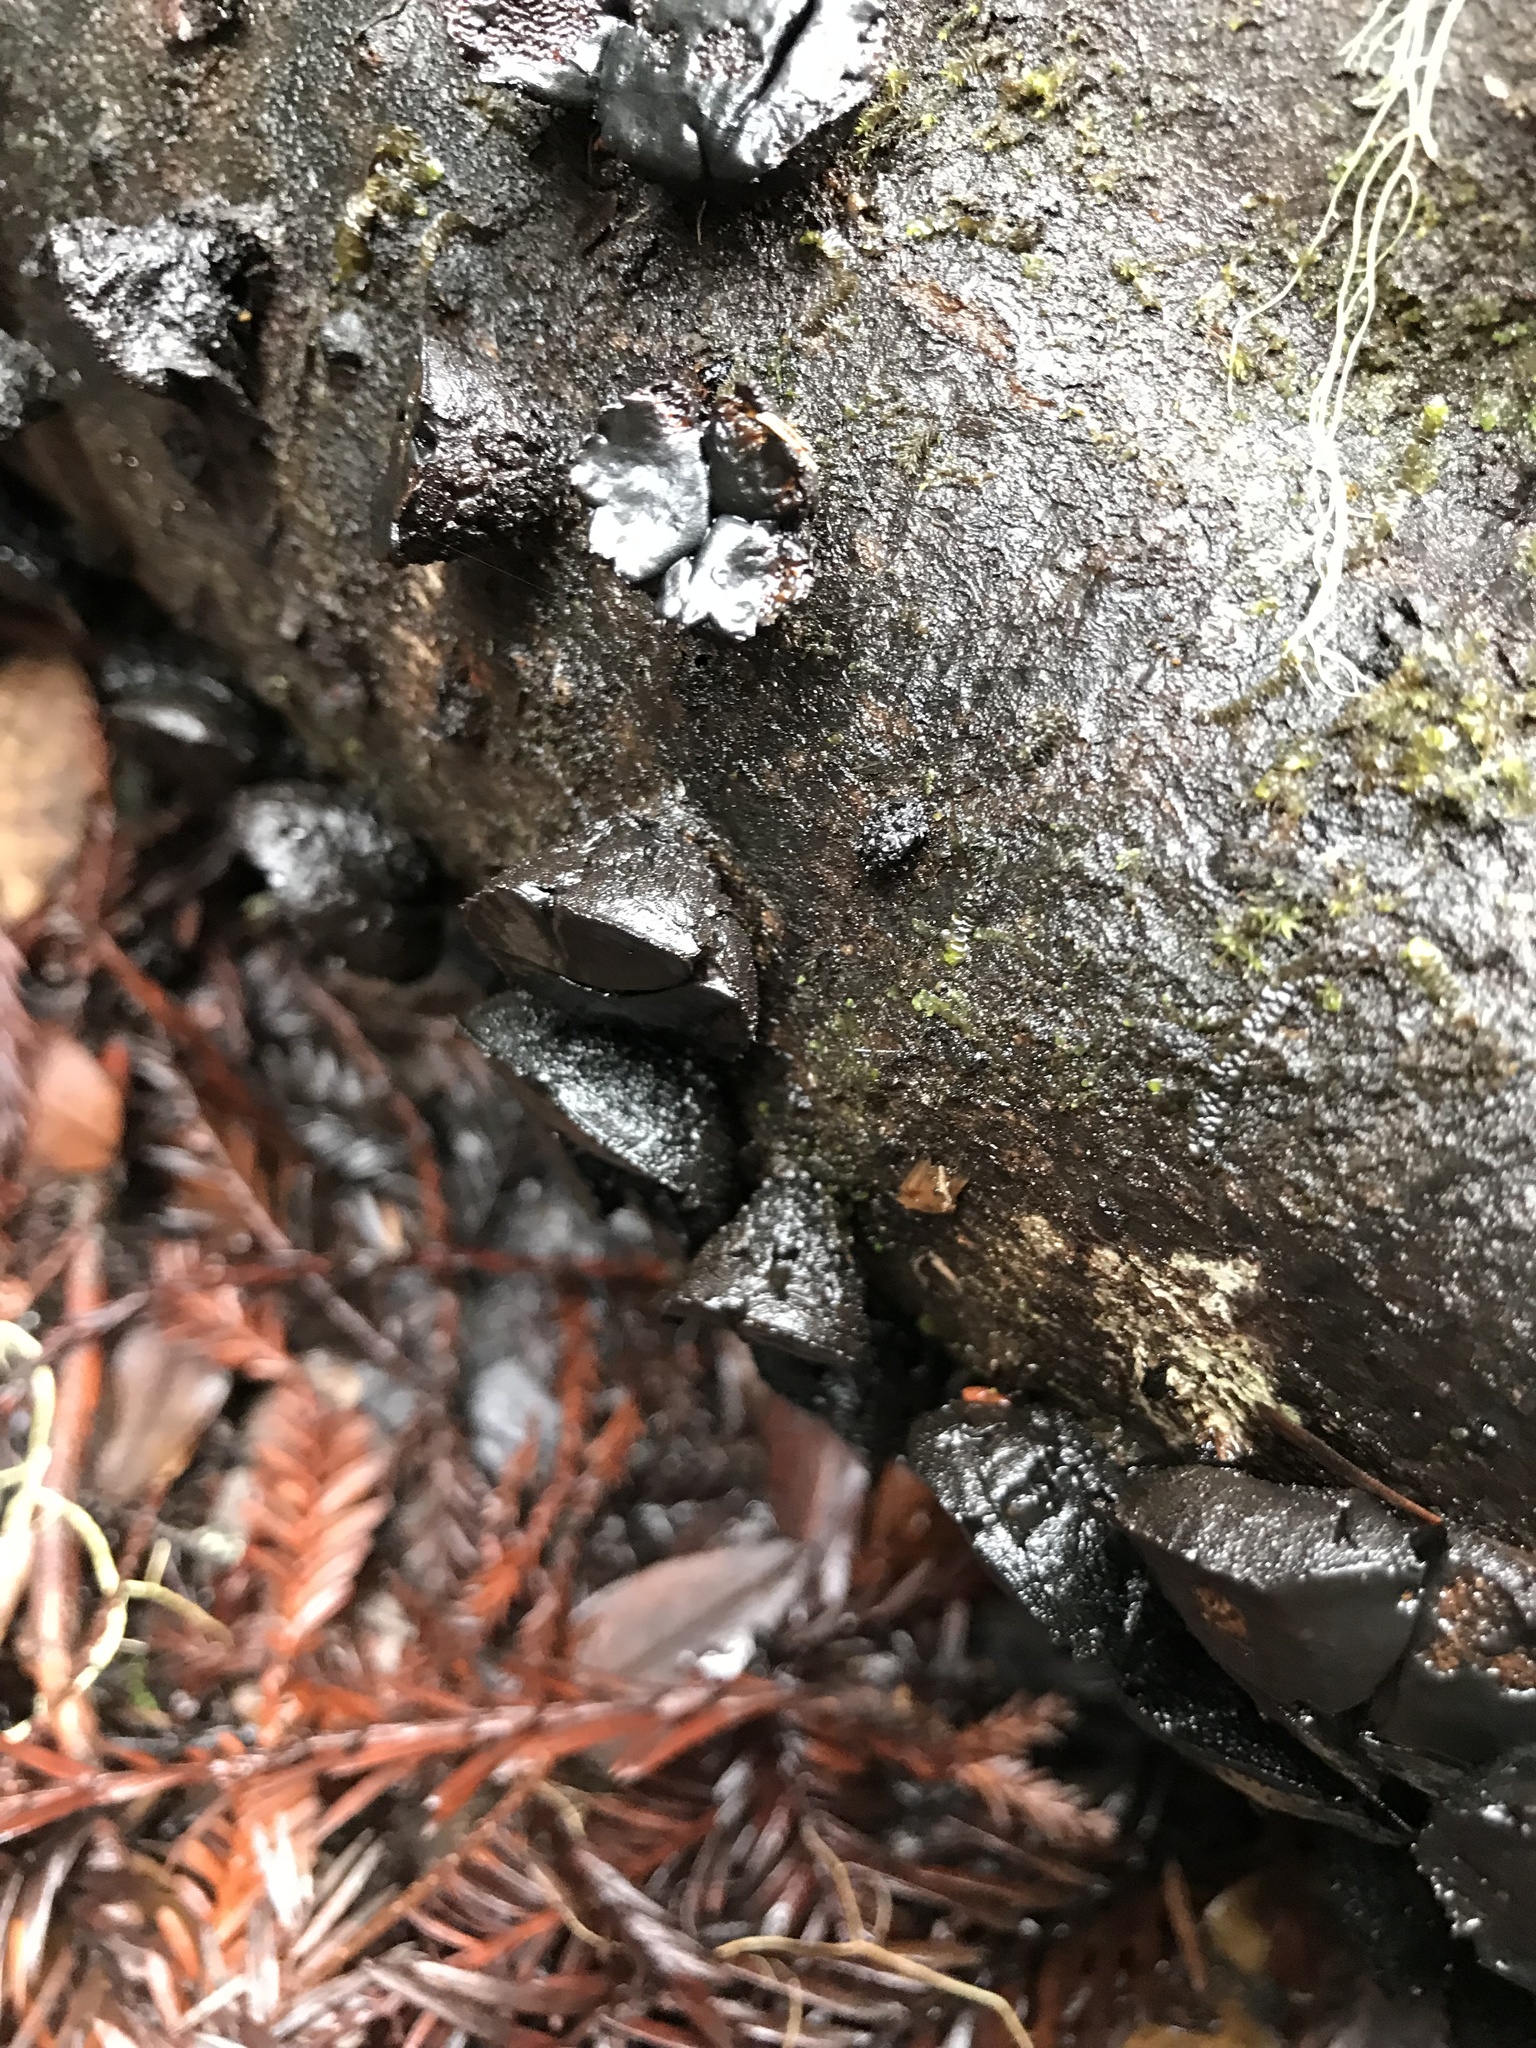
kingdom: Fungi
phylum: Ascomycota
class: Leotiomycetes
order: Phacidiales
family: Phacidiaceae
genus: Bulgaria
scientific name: Bulgaria inquinans
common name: Black bulgar
